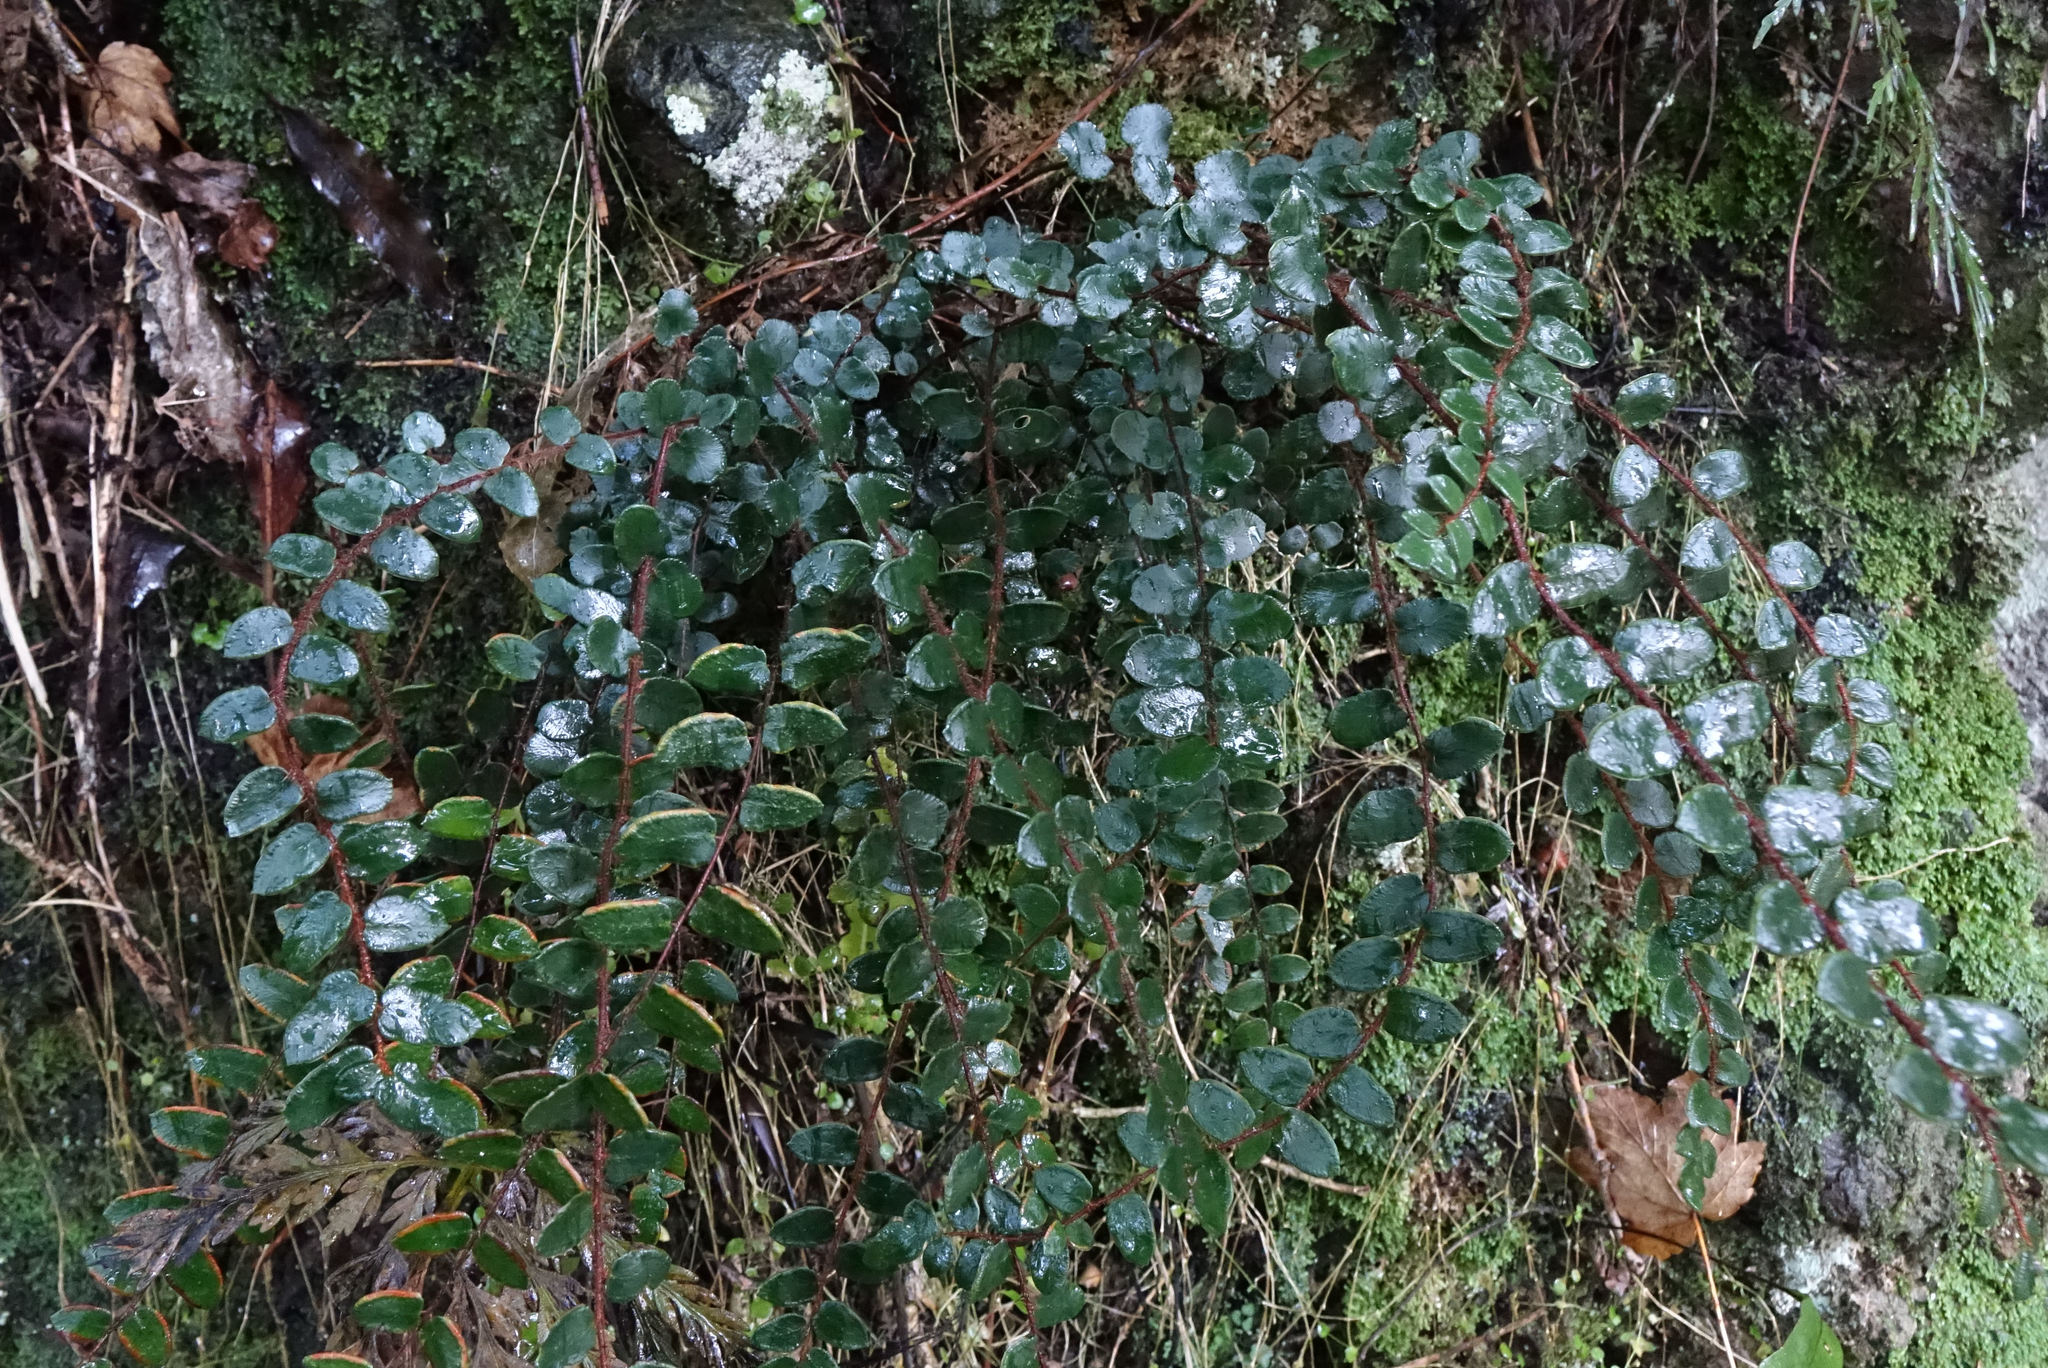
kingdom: Plantae
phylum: Tracheophyta
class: Polypodiopsida
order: Polypodiales
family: Pteridaceae
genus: Pellaea
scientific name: Pellaea rotundifolia
